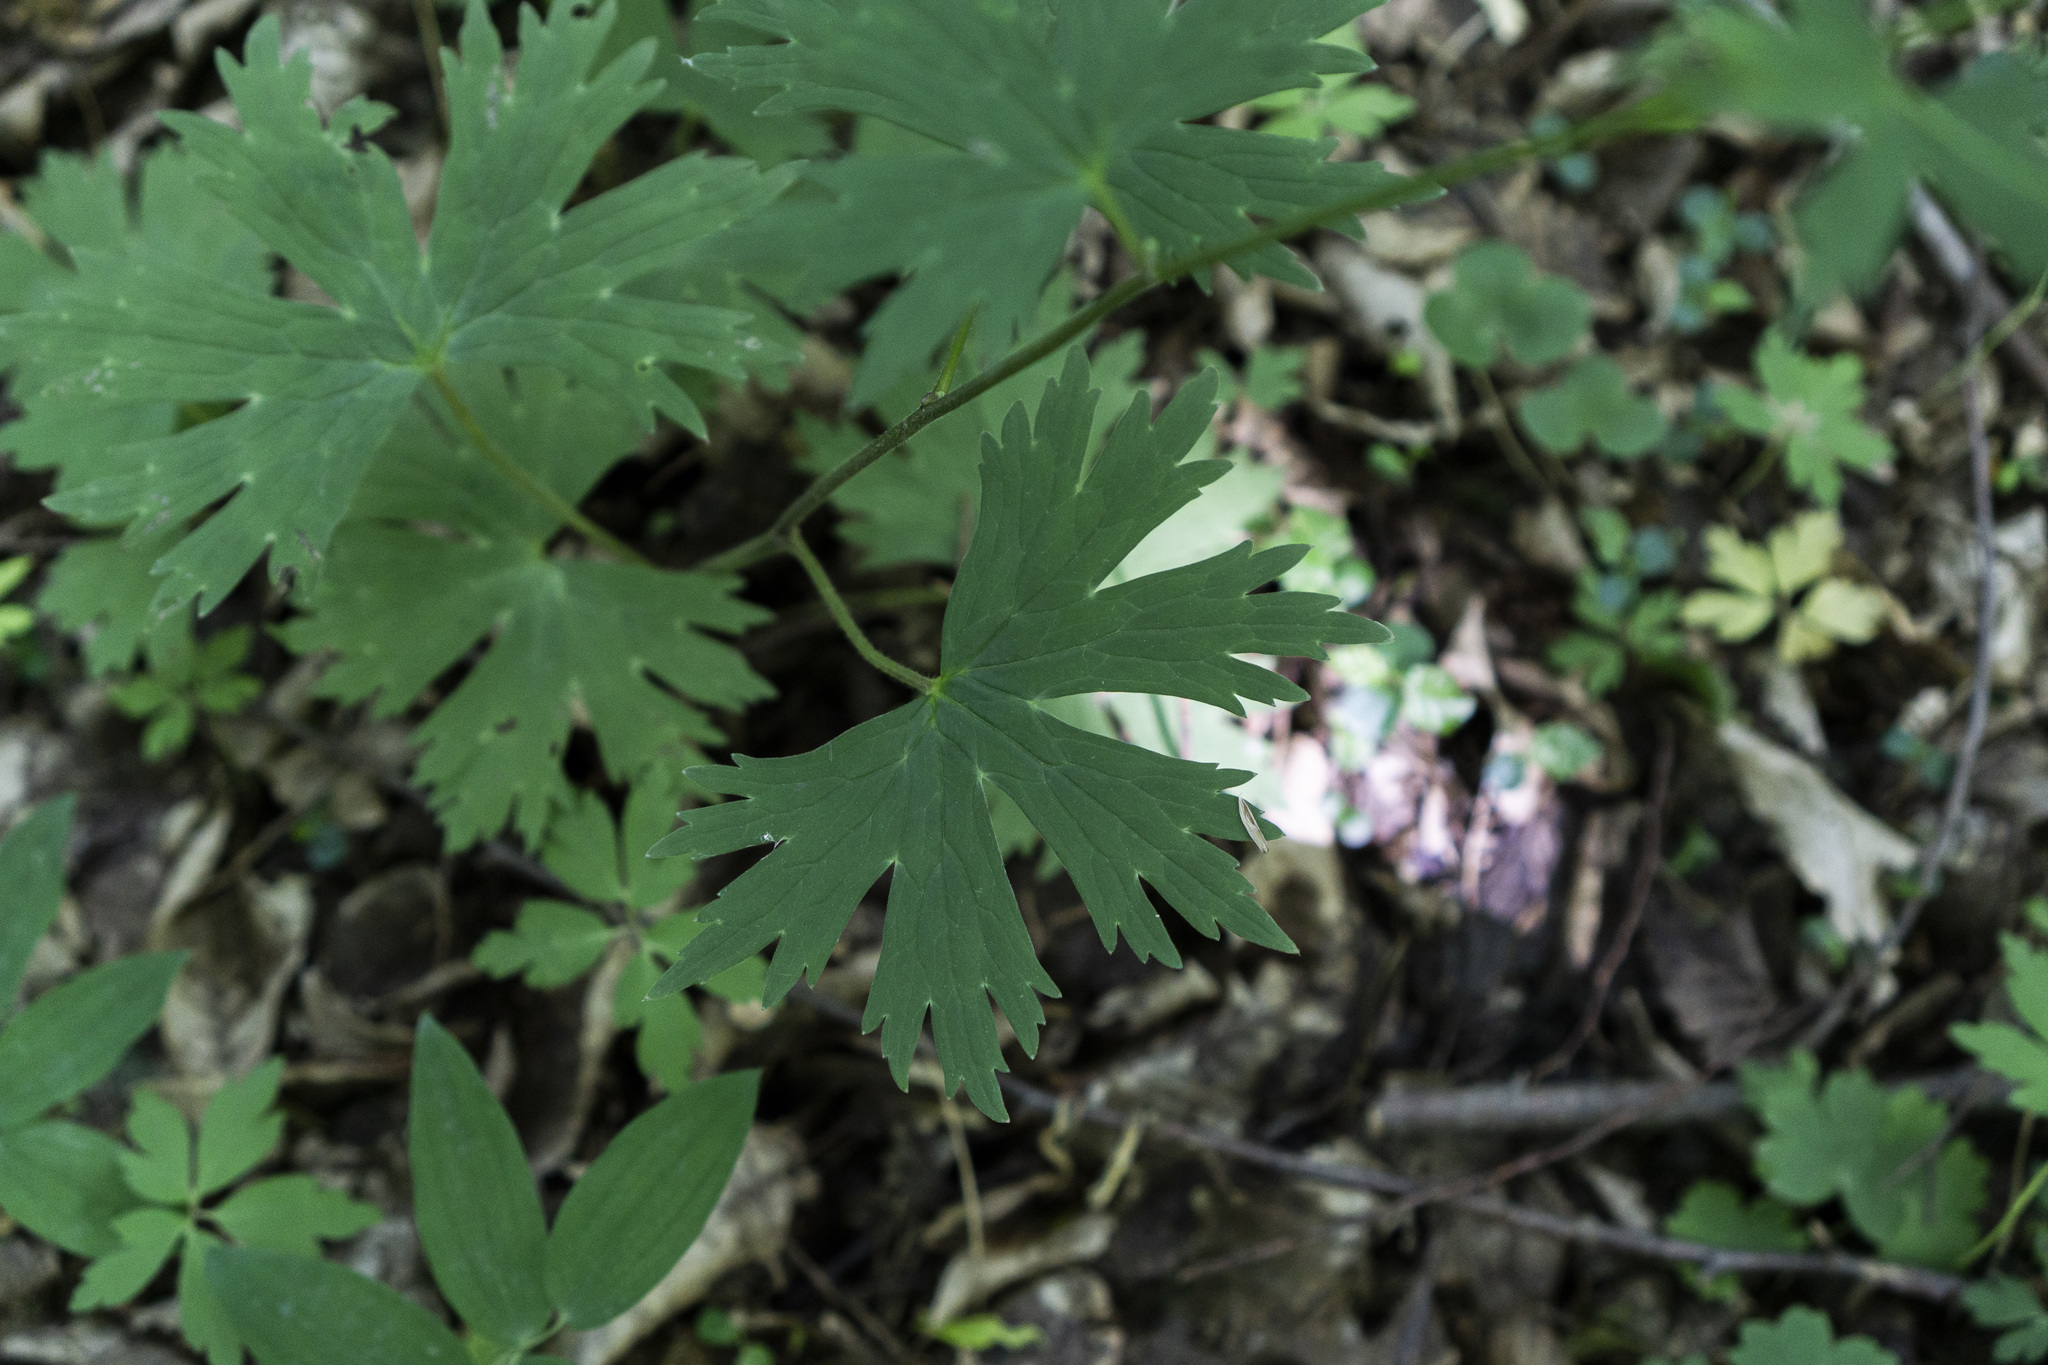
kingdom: Plantae
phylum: Tracheophyta
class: Magnoliopsida
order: Ranunculales
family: Ranunculaceae
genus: Aconitum
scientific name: Aconitum lycoctonum
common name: Wolf's-bane
